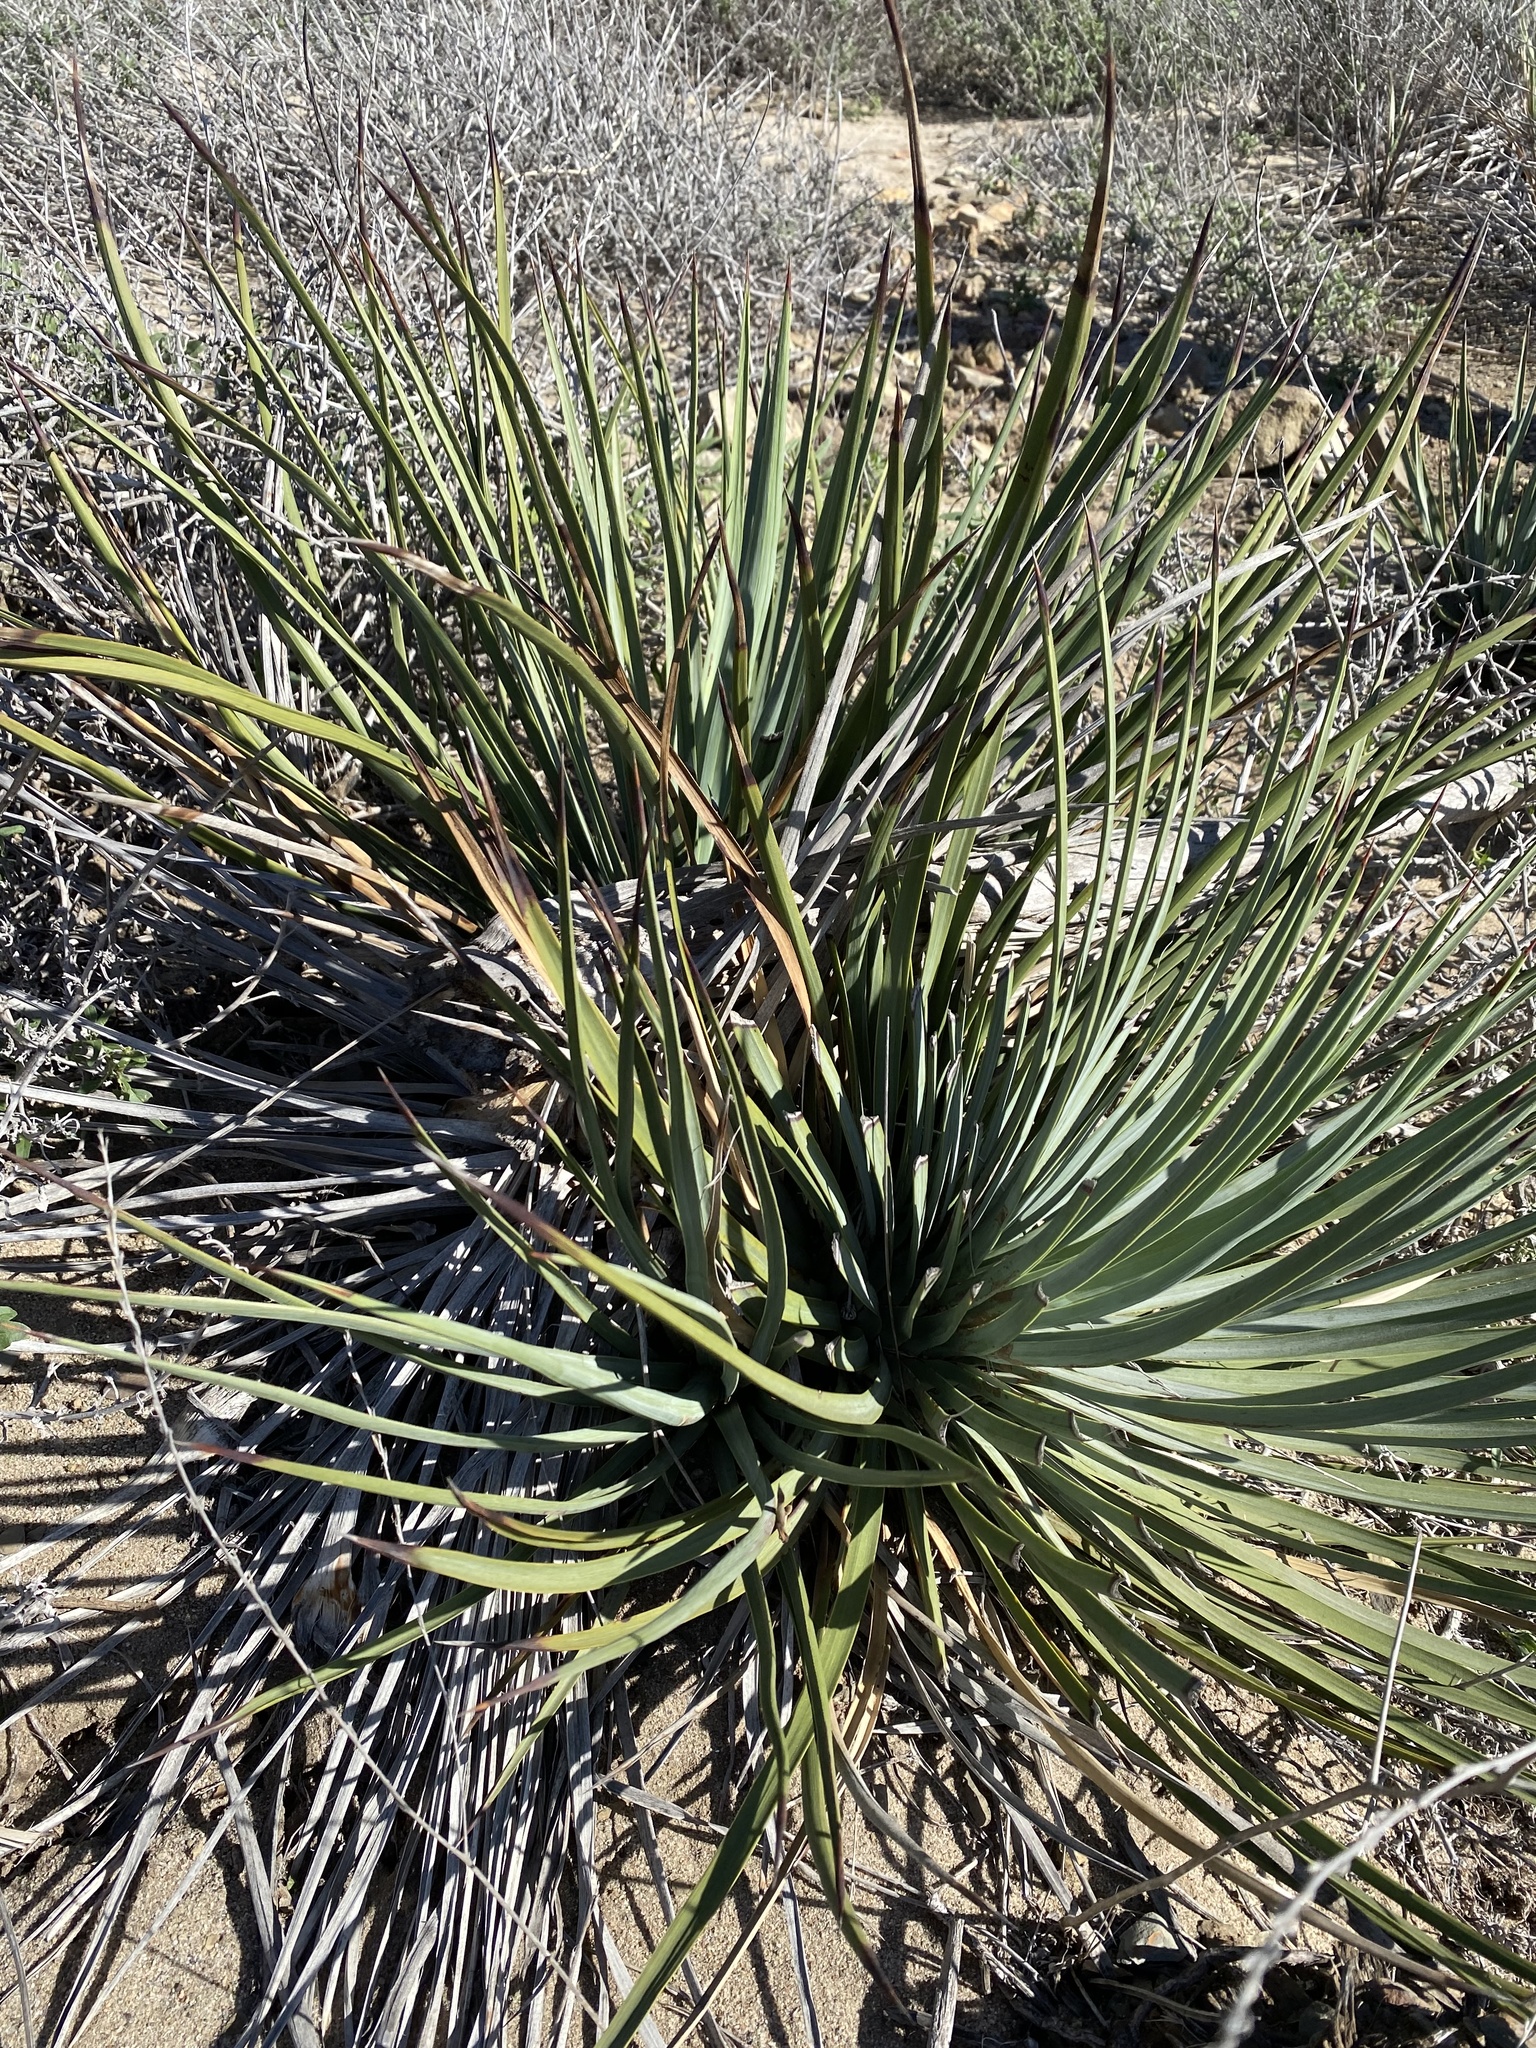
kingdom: Plantae
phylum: Tracheophyta
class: Liliopsida
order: Asparagales
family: Asparagaceae
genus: Hesperoyucca
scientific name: Hesperoyucca whipplei
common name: Our lord's-candle
